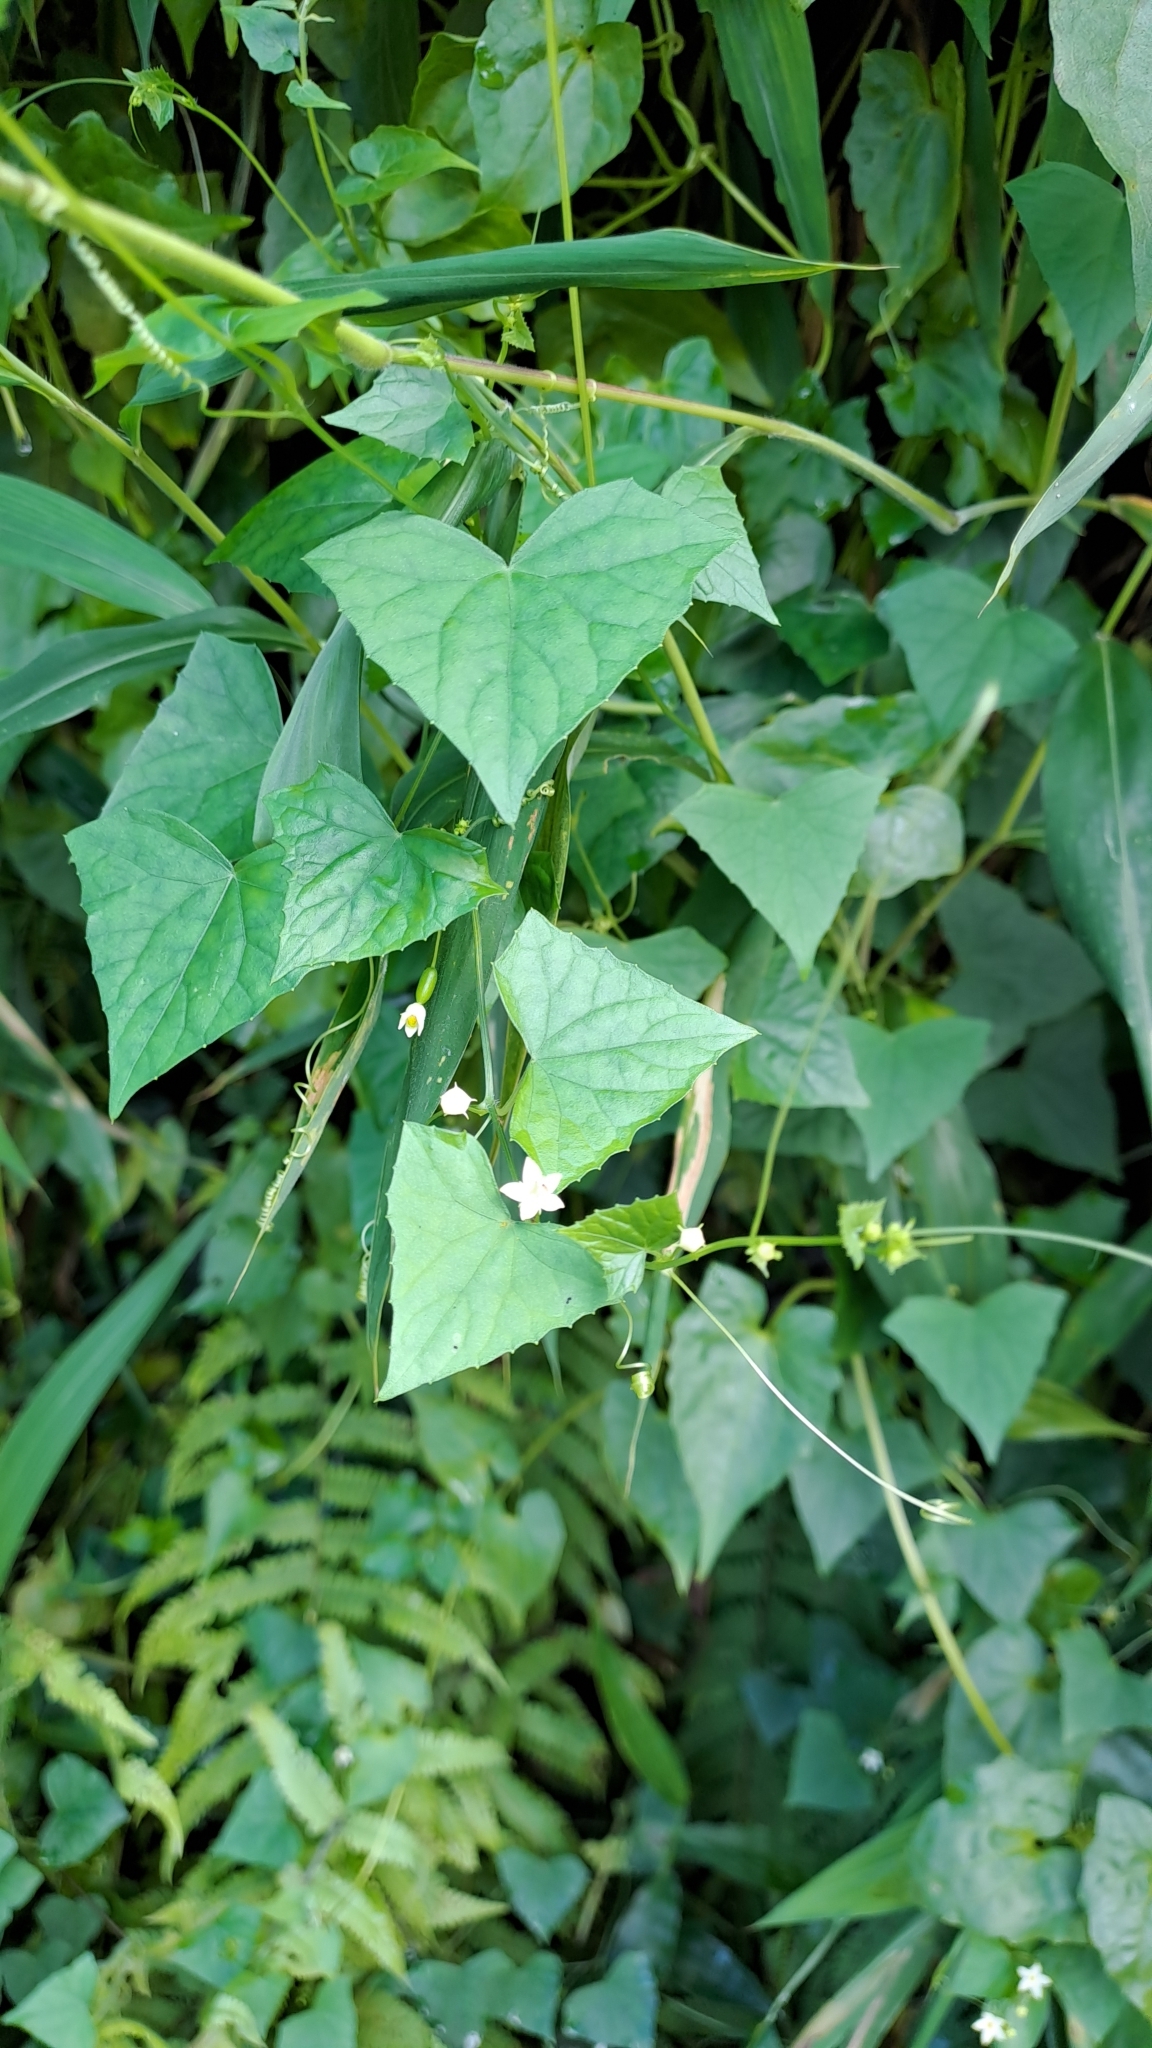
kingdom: Plantae
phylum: Tracheophyta
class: Magnoliopsida
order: Cucurbitales
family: Cucurbitaceae
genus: Zehneria
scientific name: Zehneria japonica
